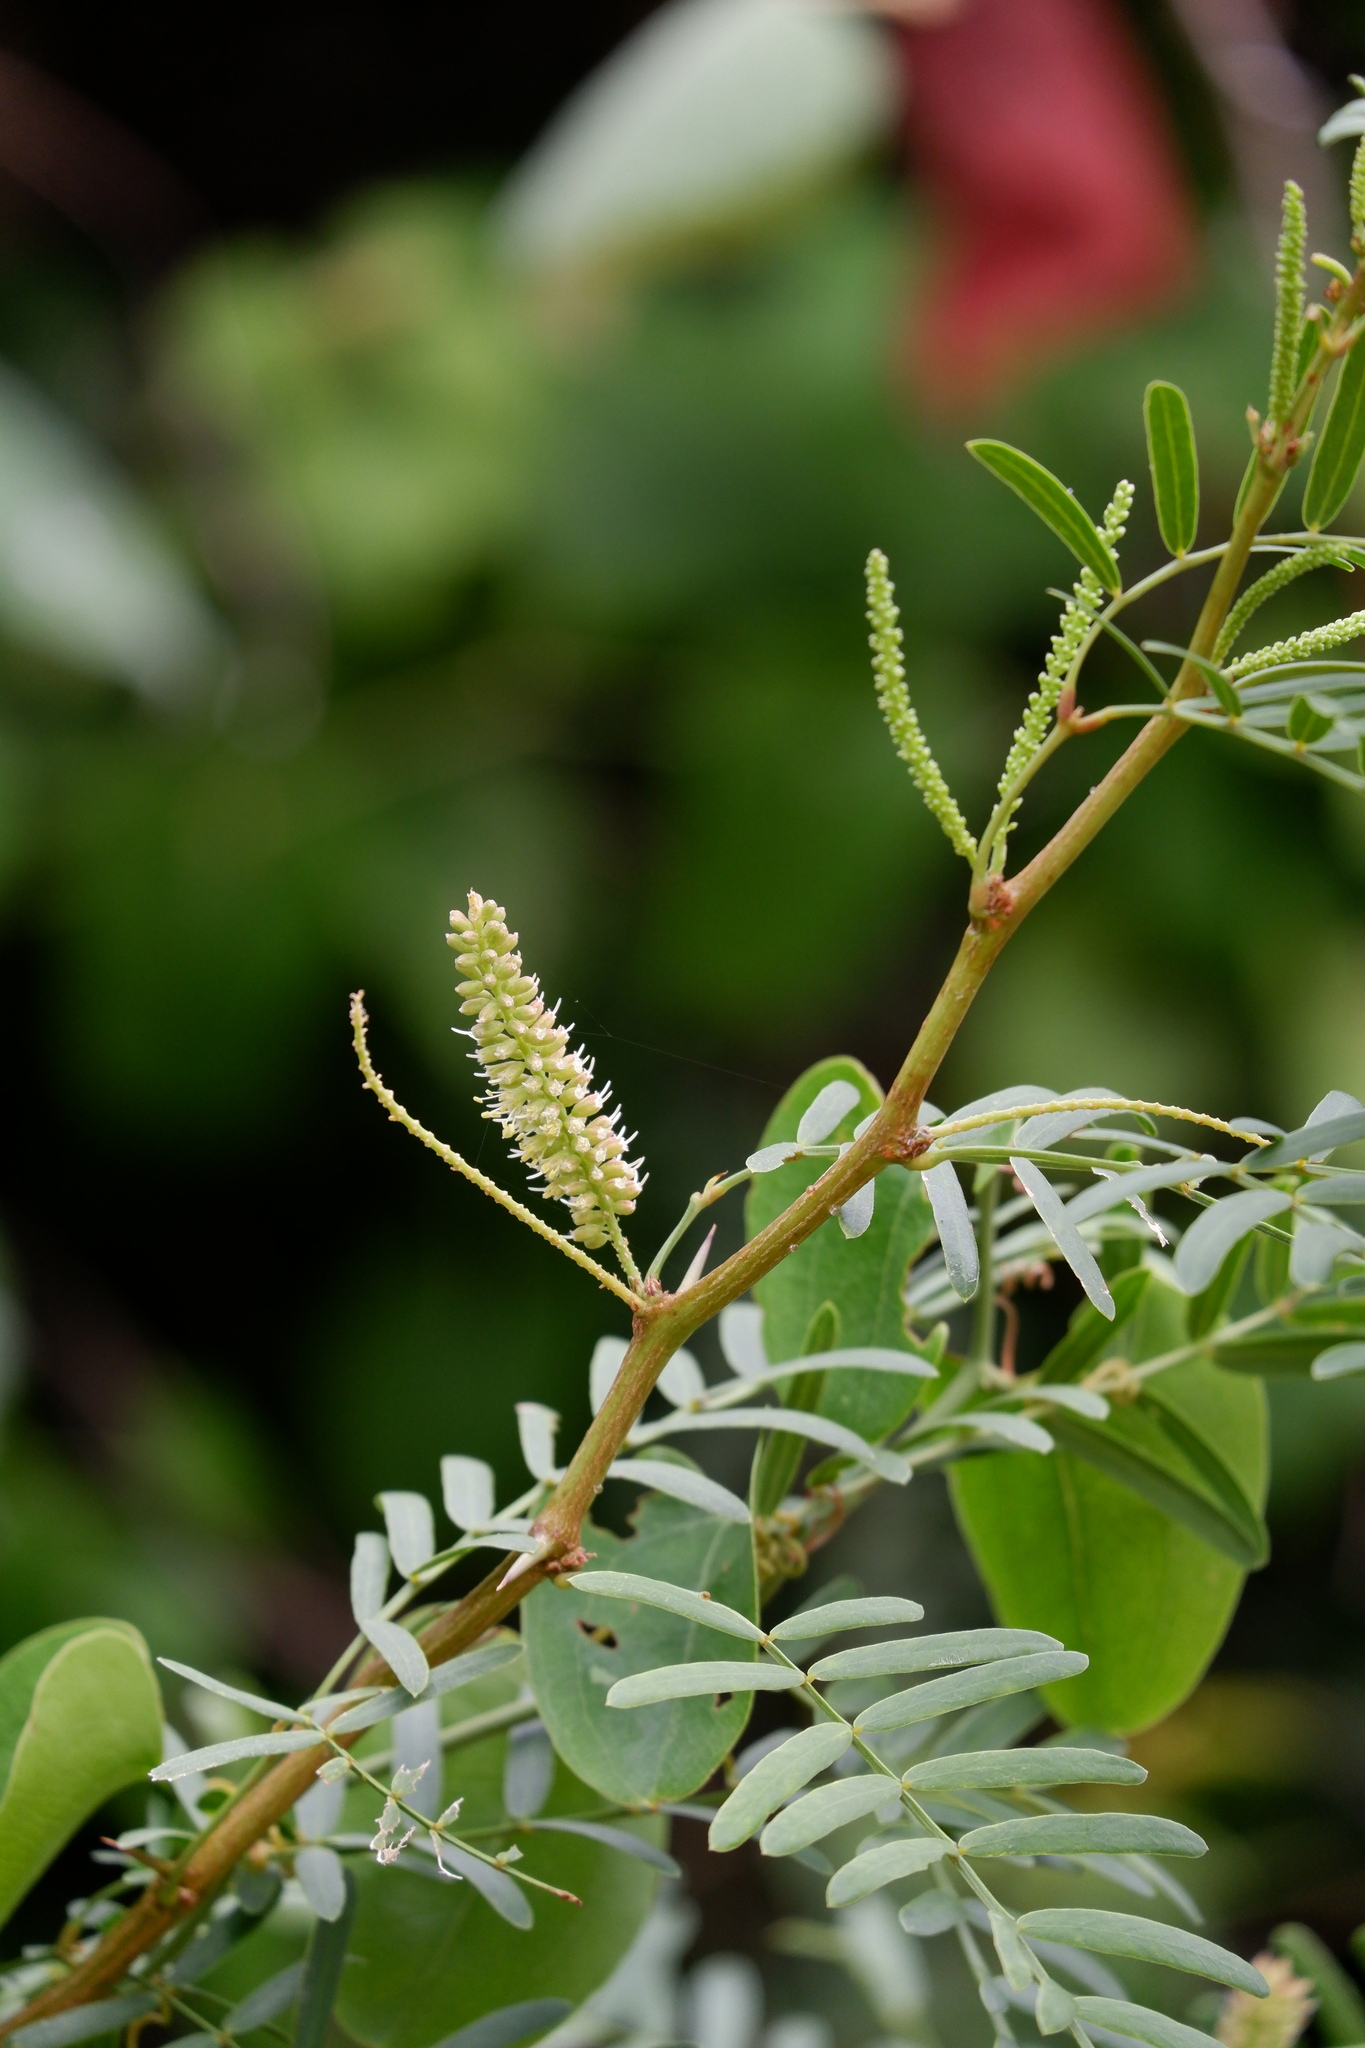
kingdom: Plantae
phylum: Tracheophyta
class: Magnoliopsida
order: Fabales
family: Fabaceae
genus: Prosopis
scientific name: Prosopis glandulosa
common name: Honey mesquite
